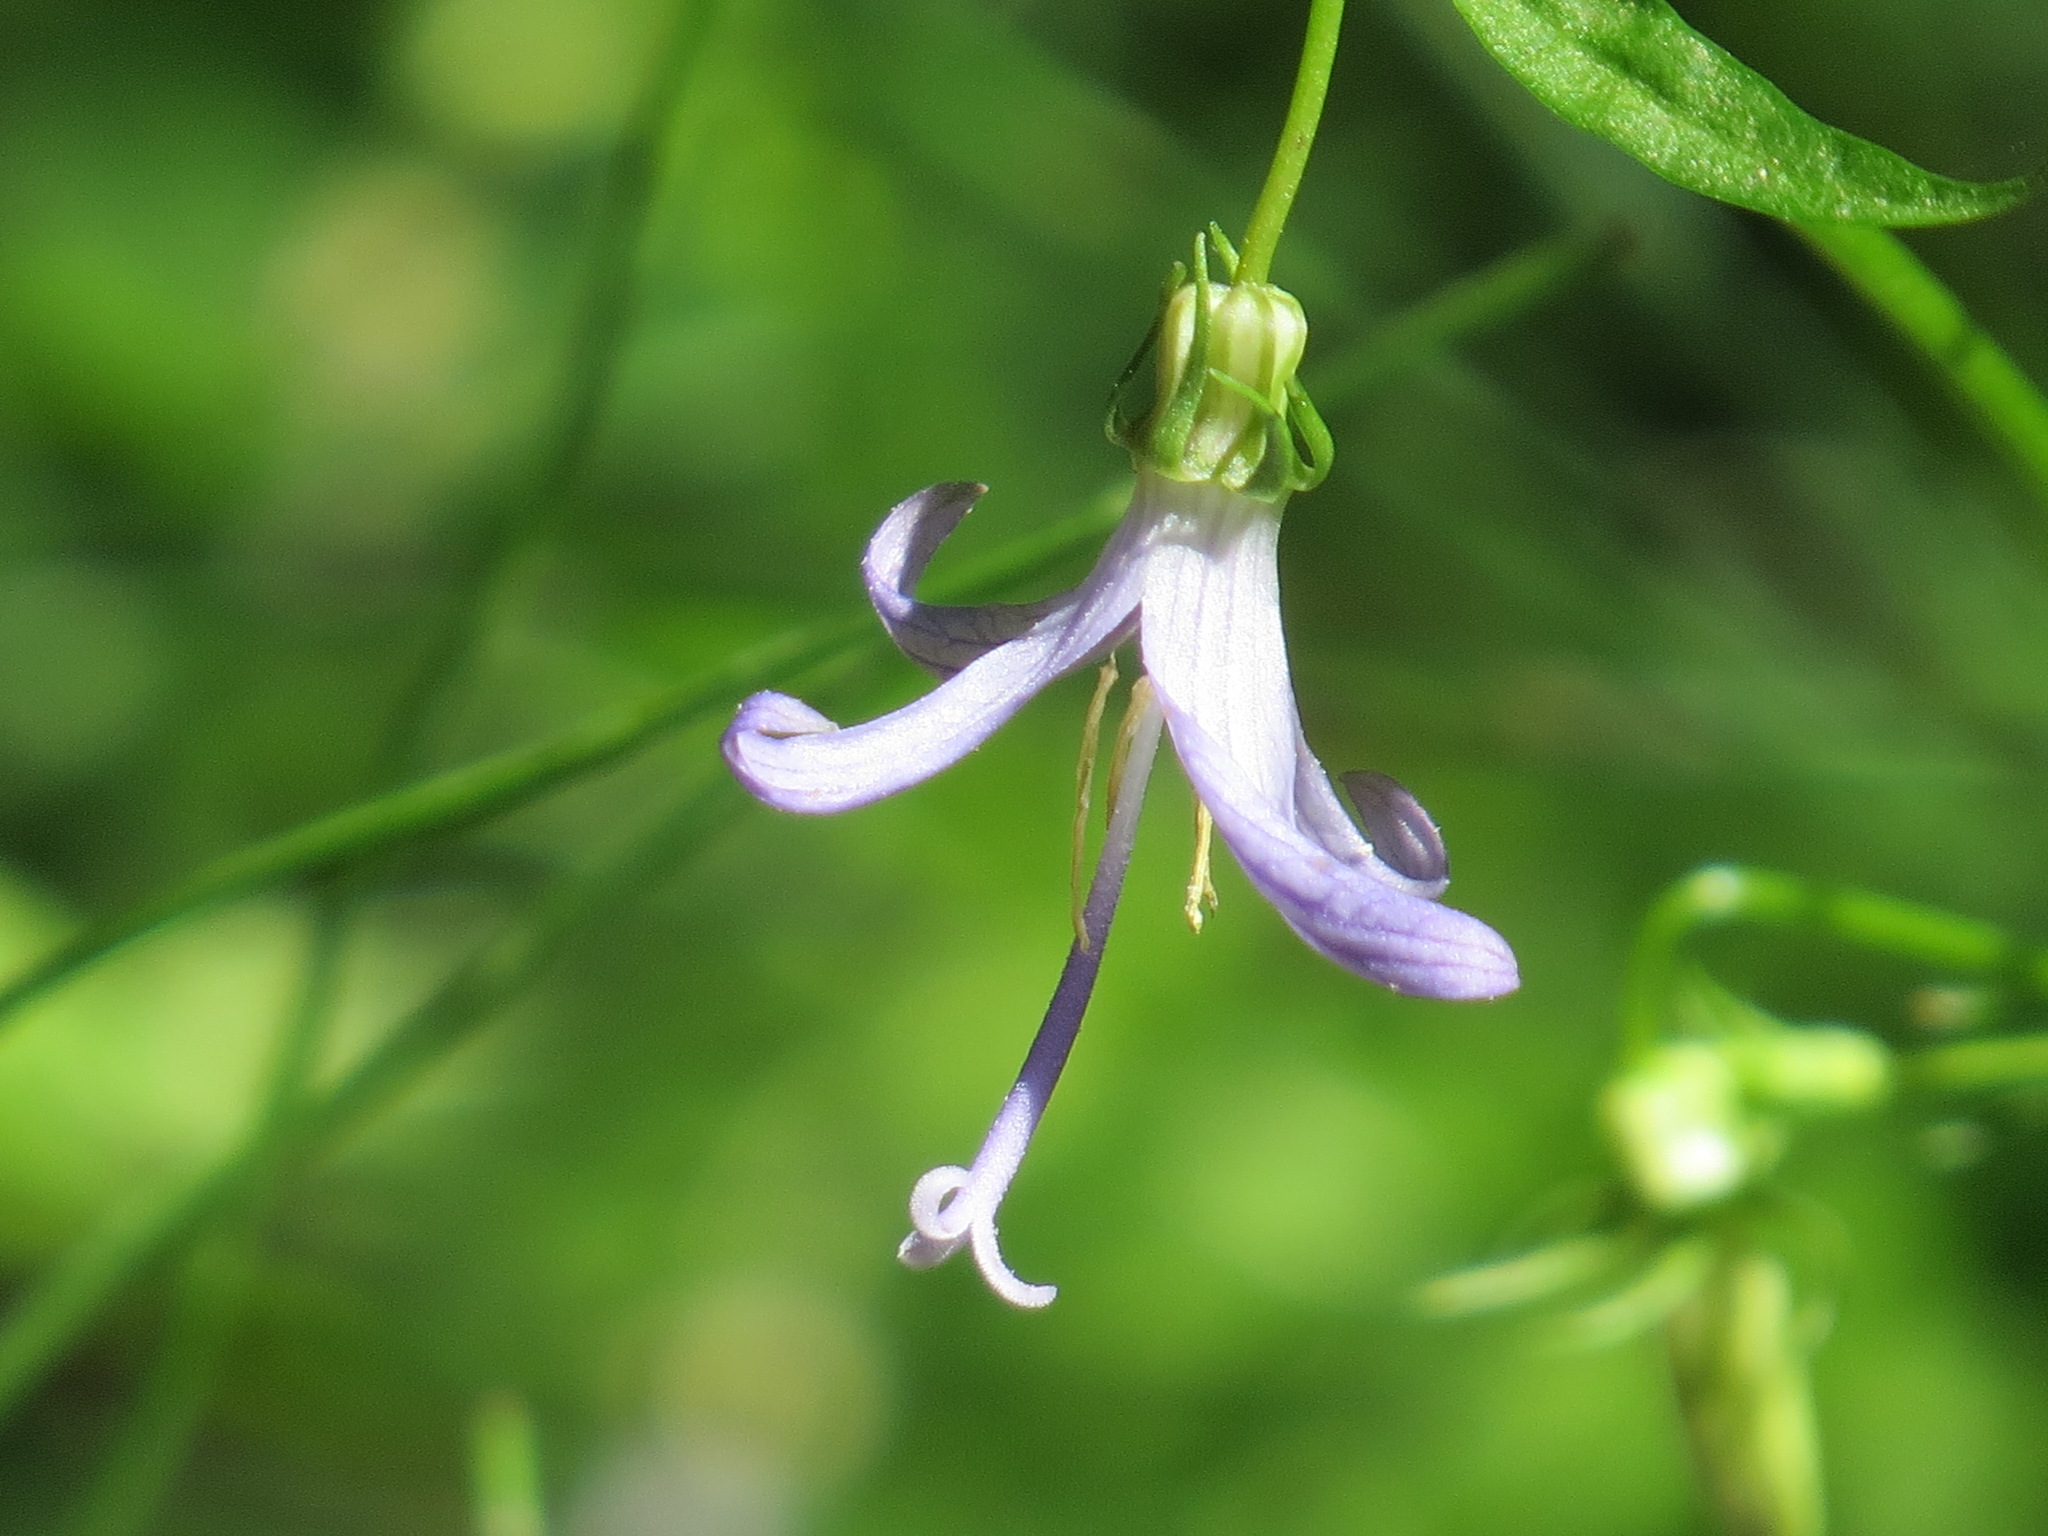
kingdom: Plantae
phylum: Tracheophyta
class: Magnoliopsida
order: Asterales
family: Campanulaceae
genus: Smithiastrum
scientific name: Smithiastrum prenanthoides
